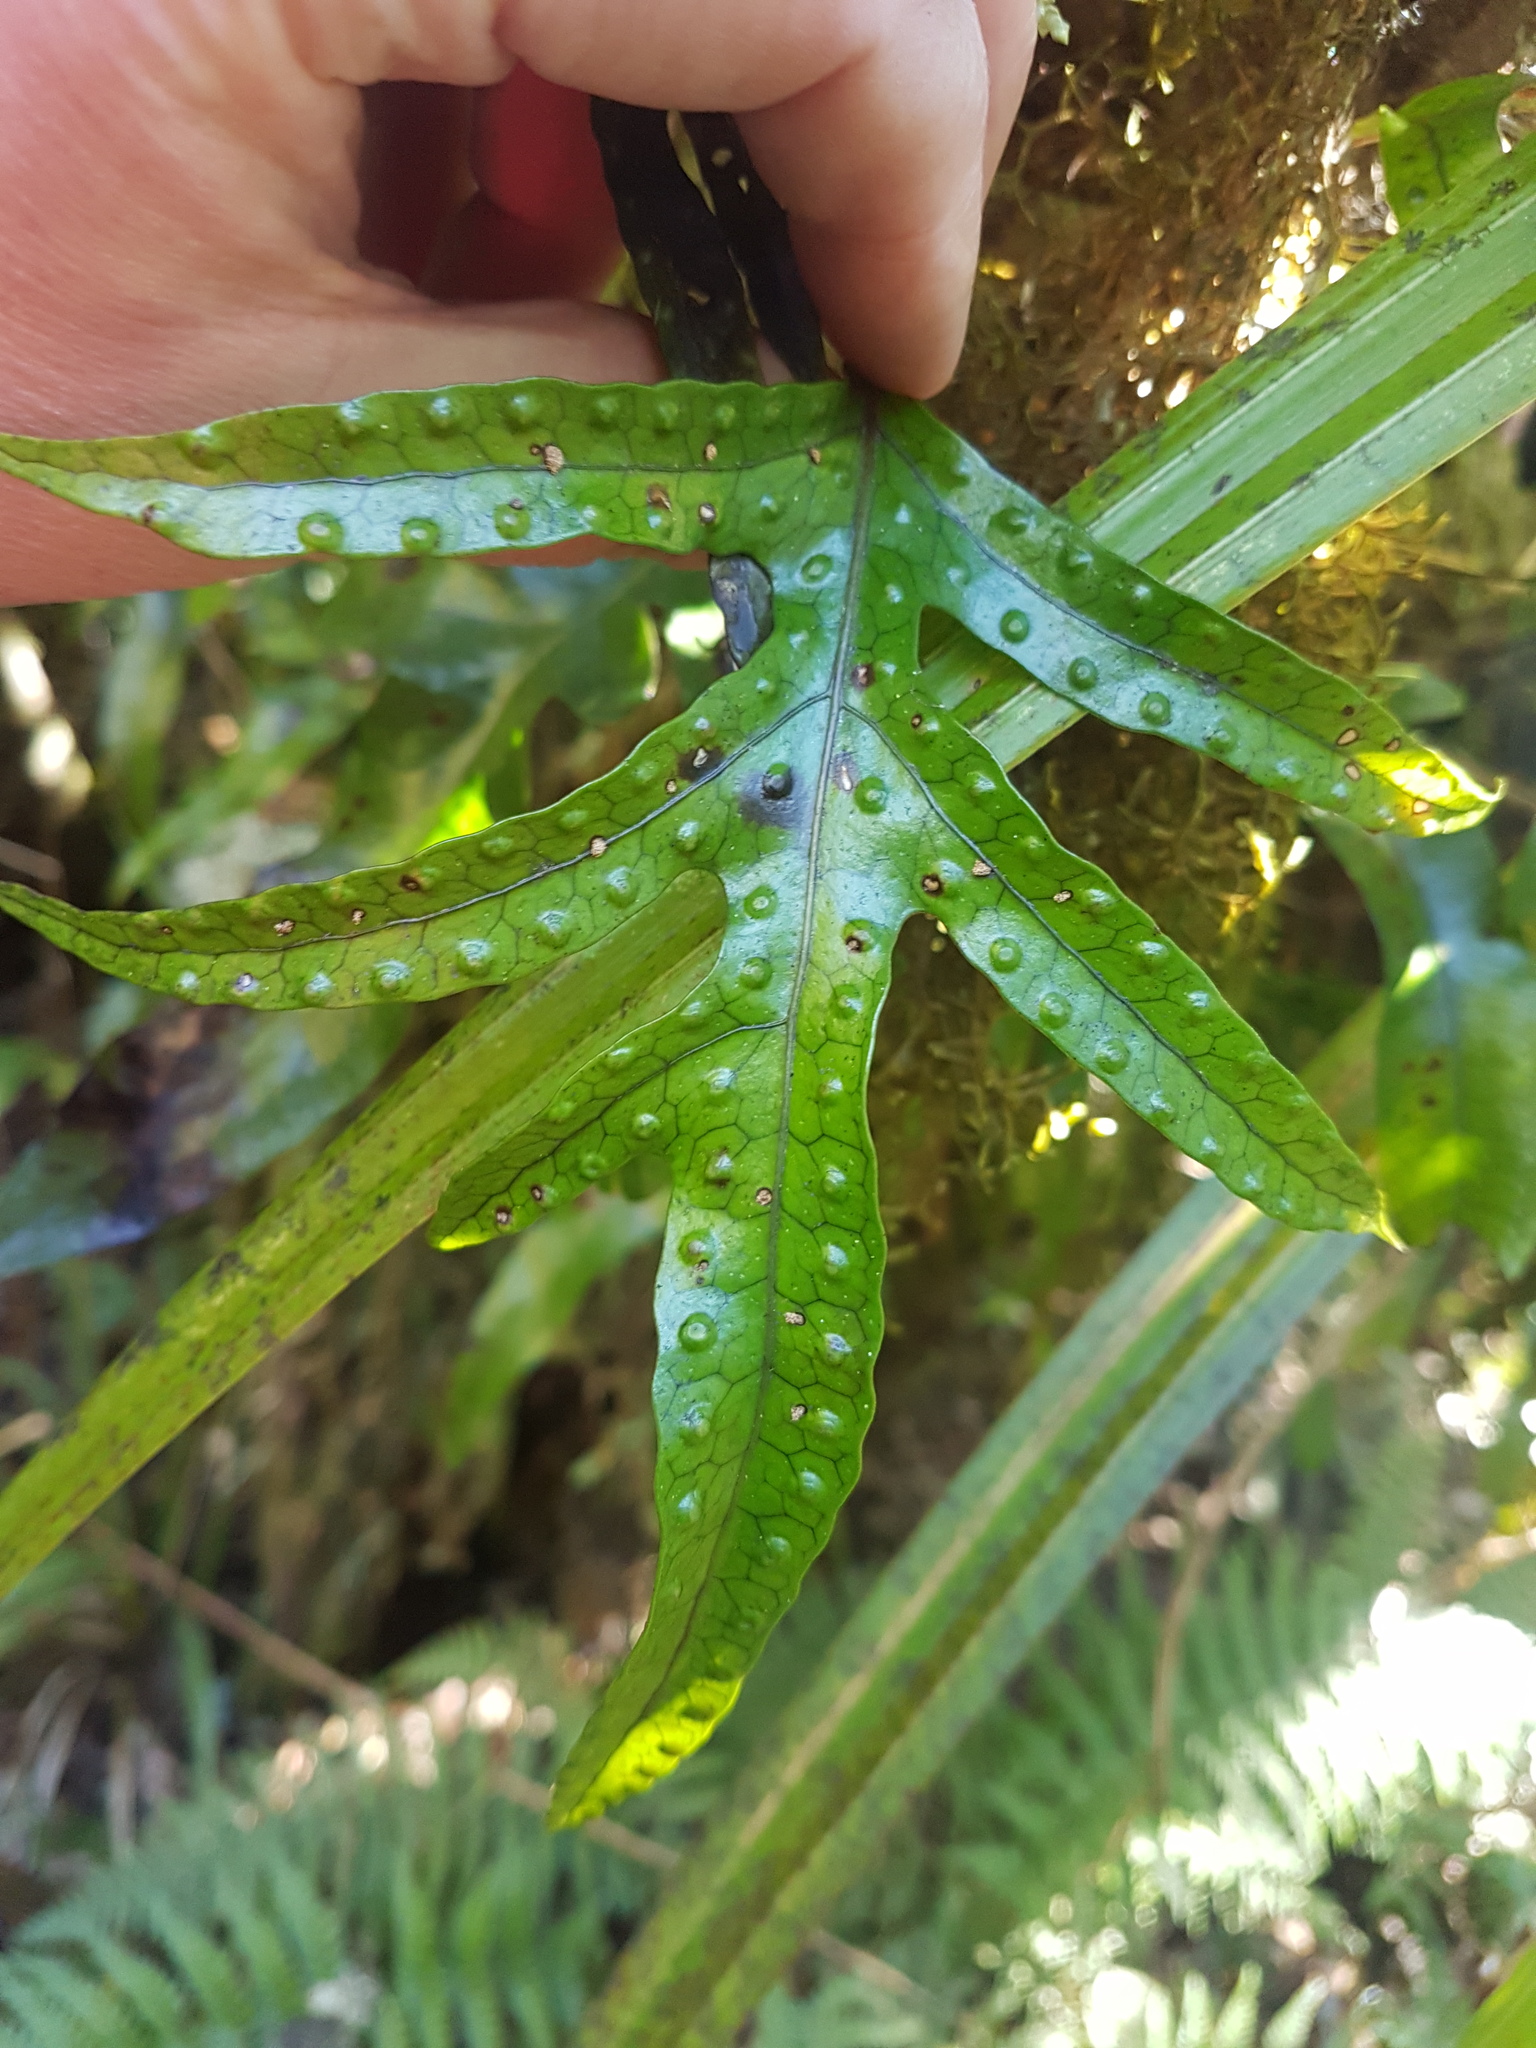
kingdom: Plantae
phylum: Tracheophyta
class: Polypodiopsida
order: Polypodiales
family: Polypodiaceae
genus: Lecanopteris
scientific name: Lecanopteris pustulata
